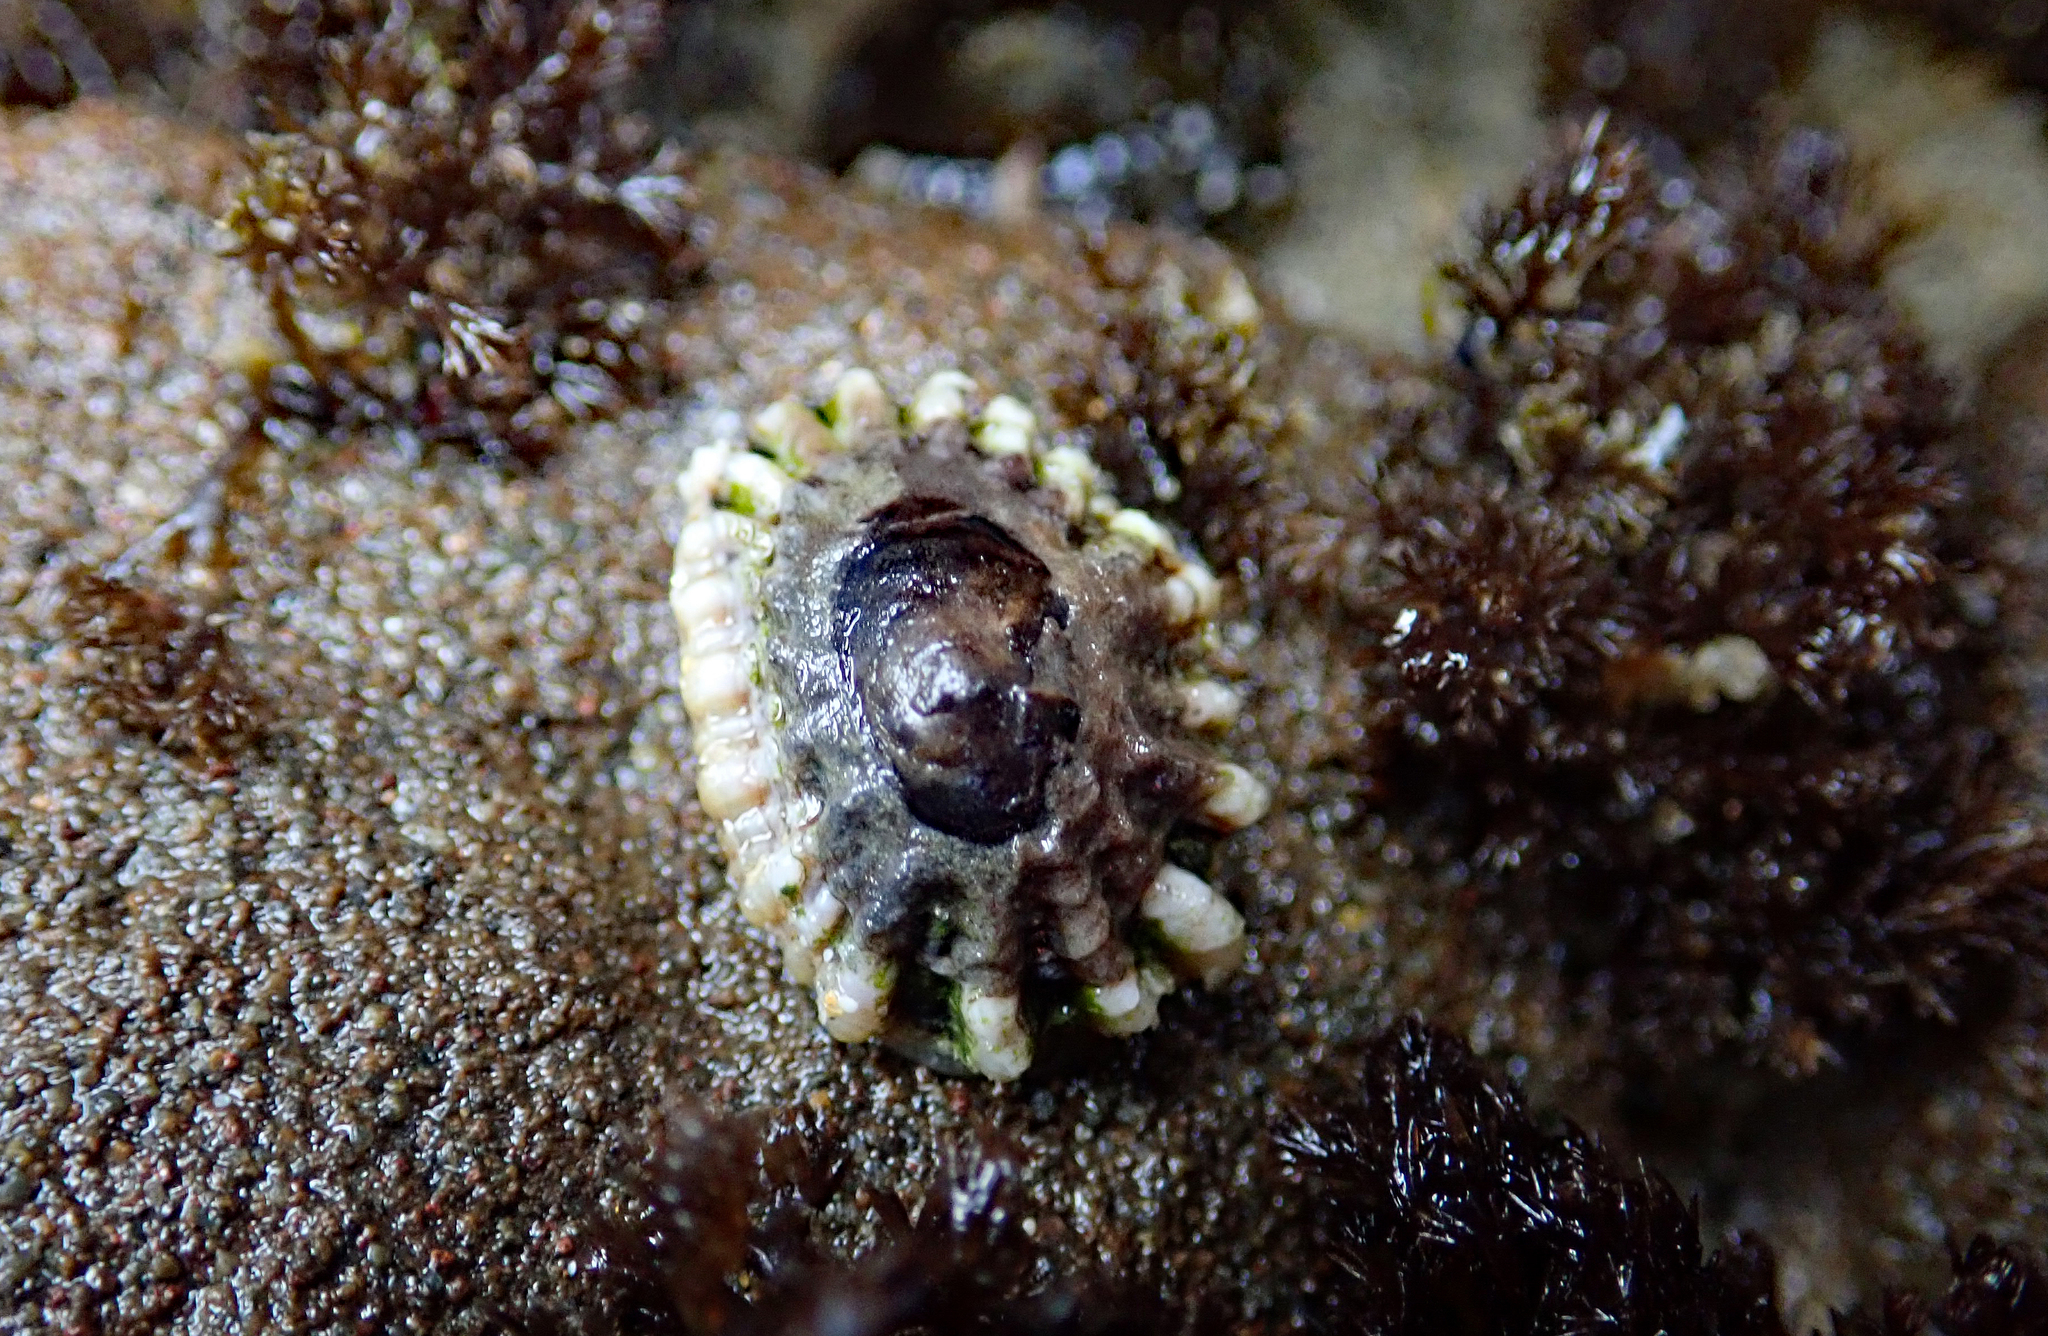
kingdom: Animalia
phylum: Mollusca
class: Gastropoda
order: Siphonariida
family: Siphonariidae
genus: Siphonaria
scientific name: Siphonaria australis
